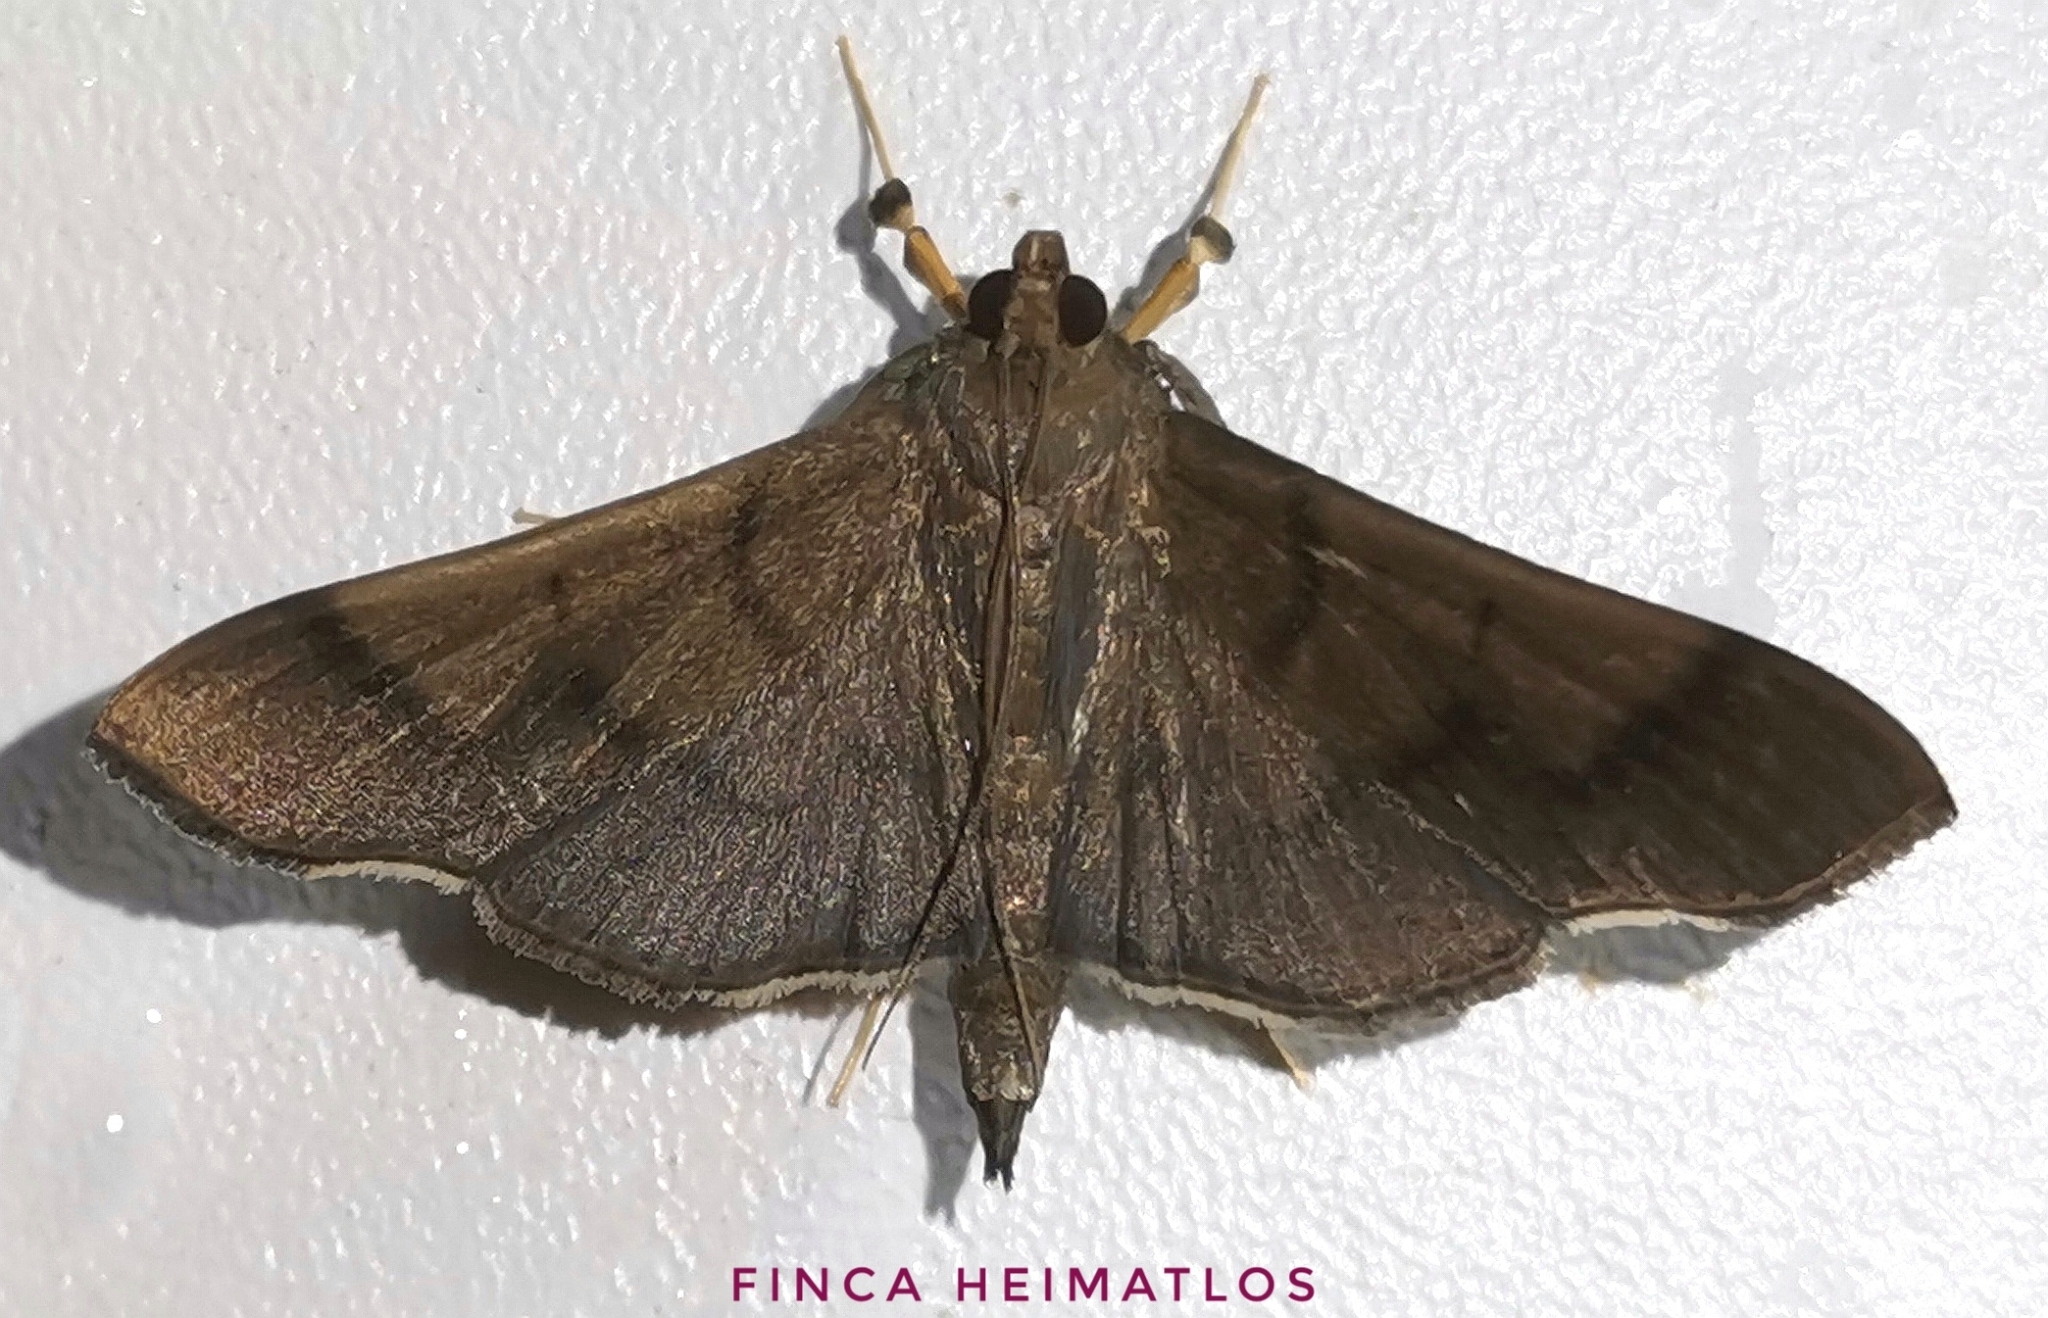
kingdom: Animalia
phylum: Arthropoda
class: Insecta
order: Lepidoptera
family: Crambidae
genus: Omiodes
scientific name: Omiodes insolutalis
